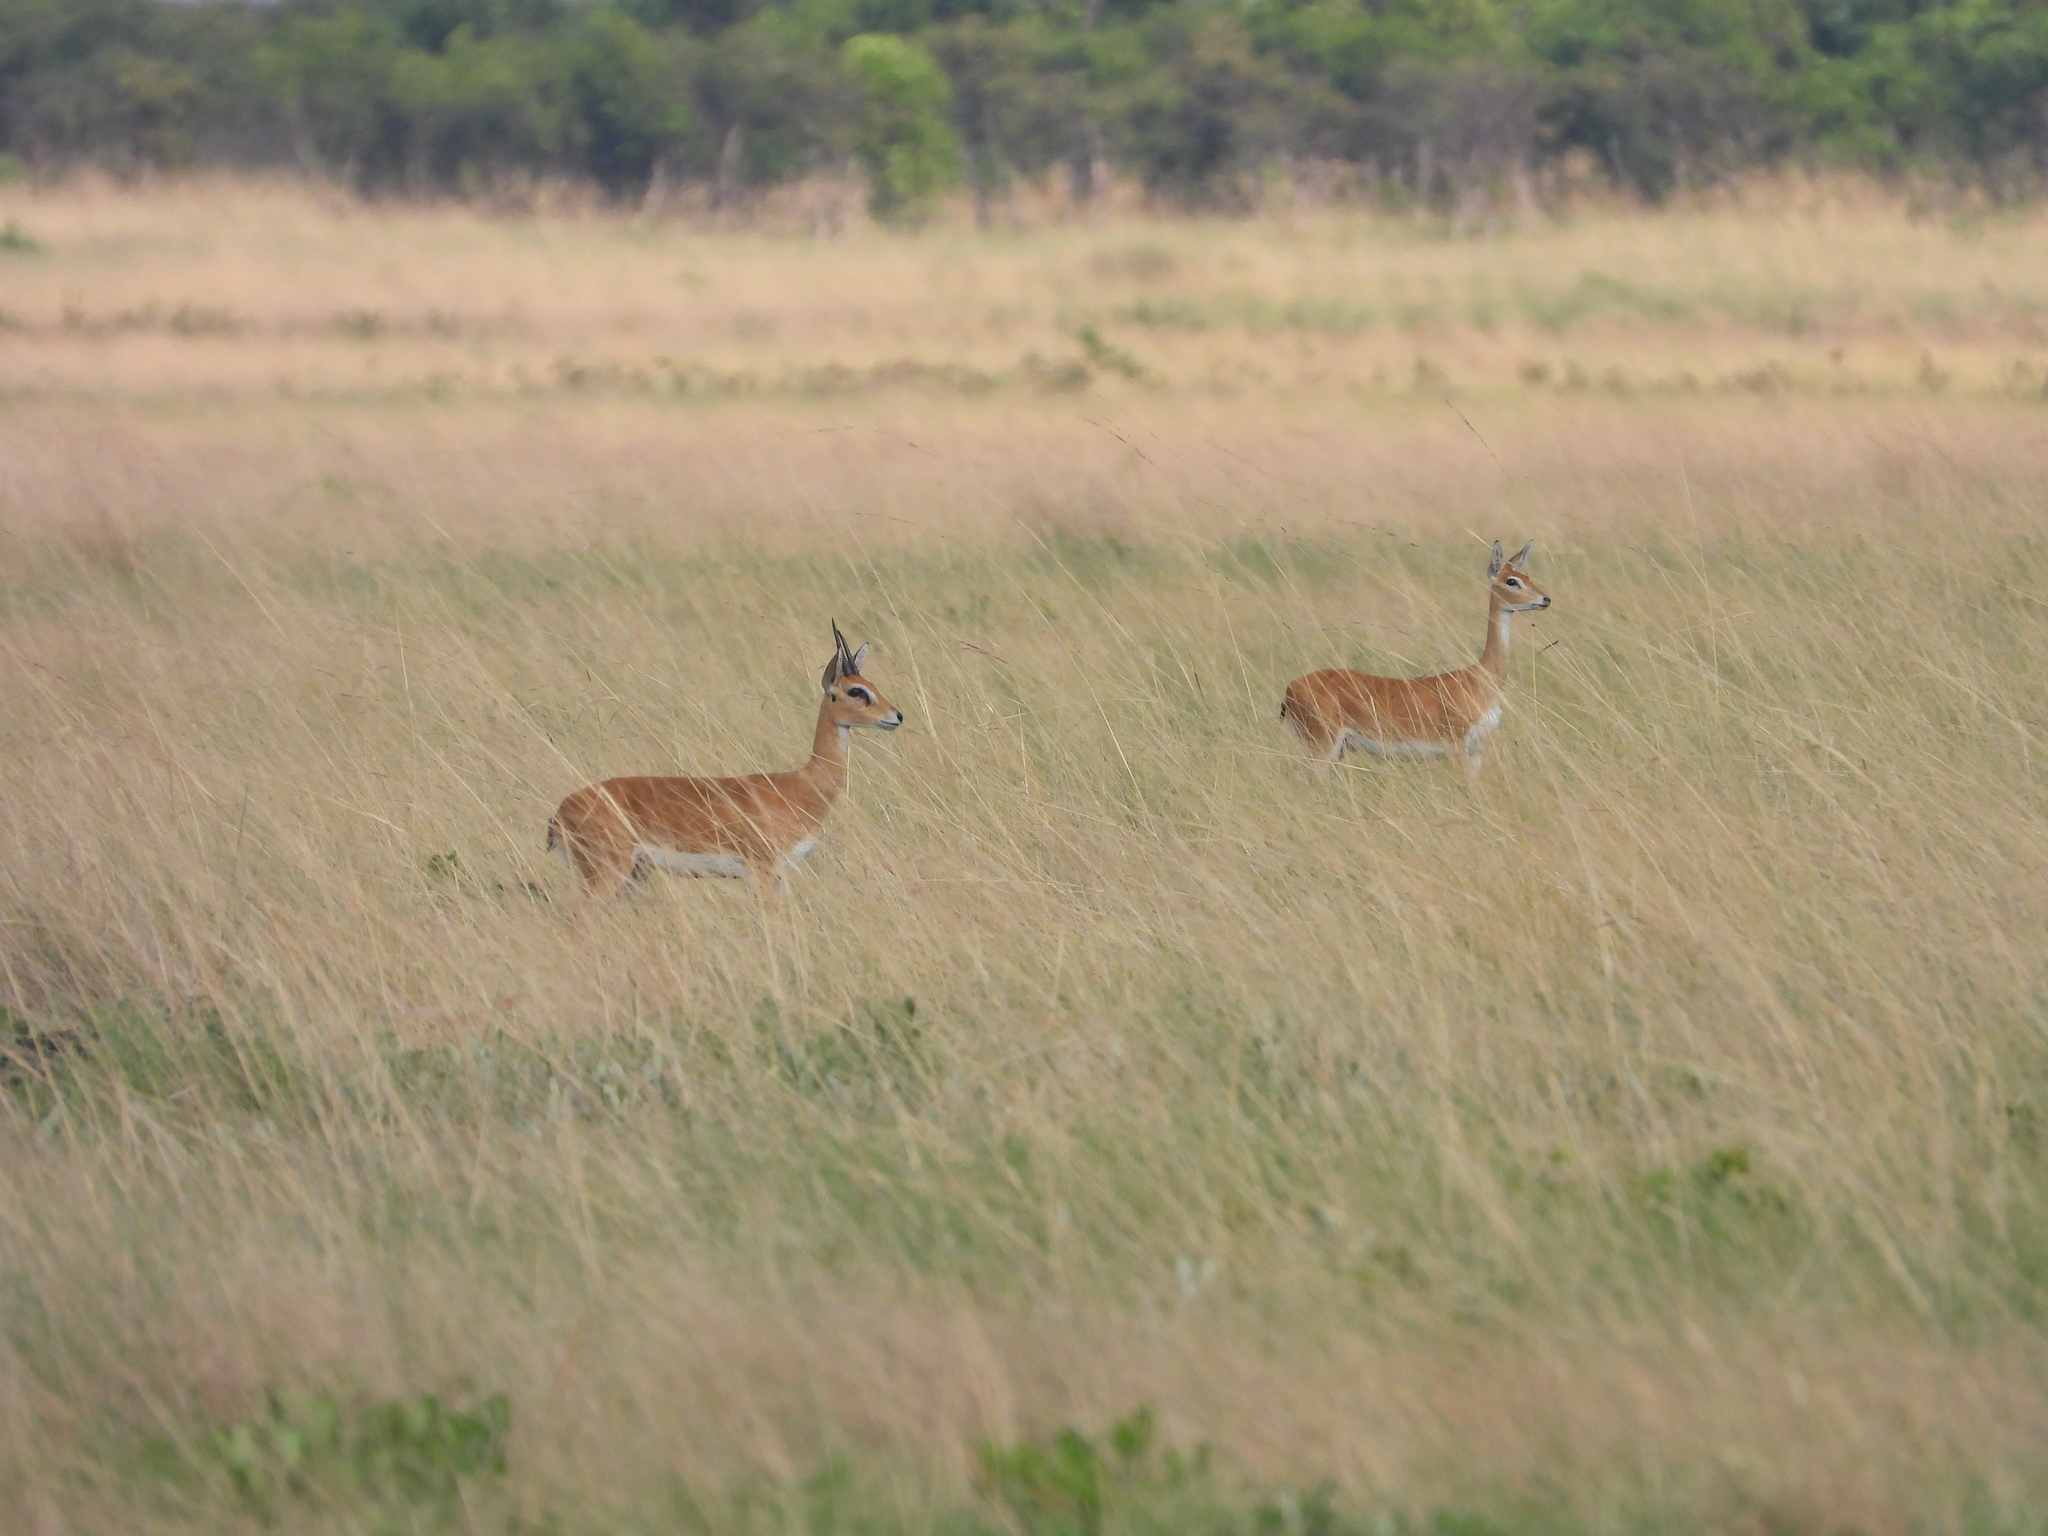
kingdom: Animalia
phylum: Chordata
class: Mammalia
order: Artiodactyla
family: Bovidae
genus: Ourebia
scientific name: Ourebia ourebi
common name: Oribi
